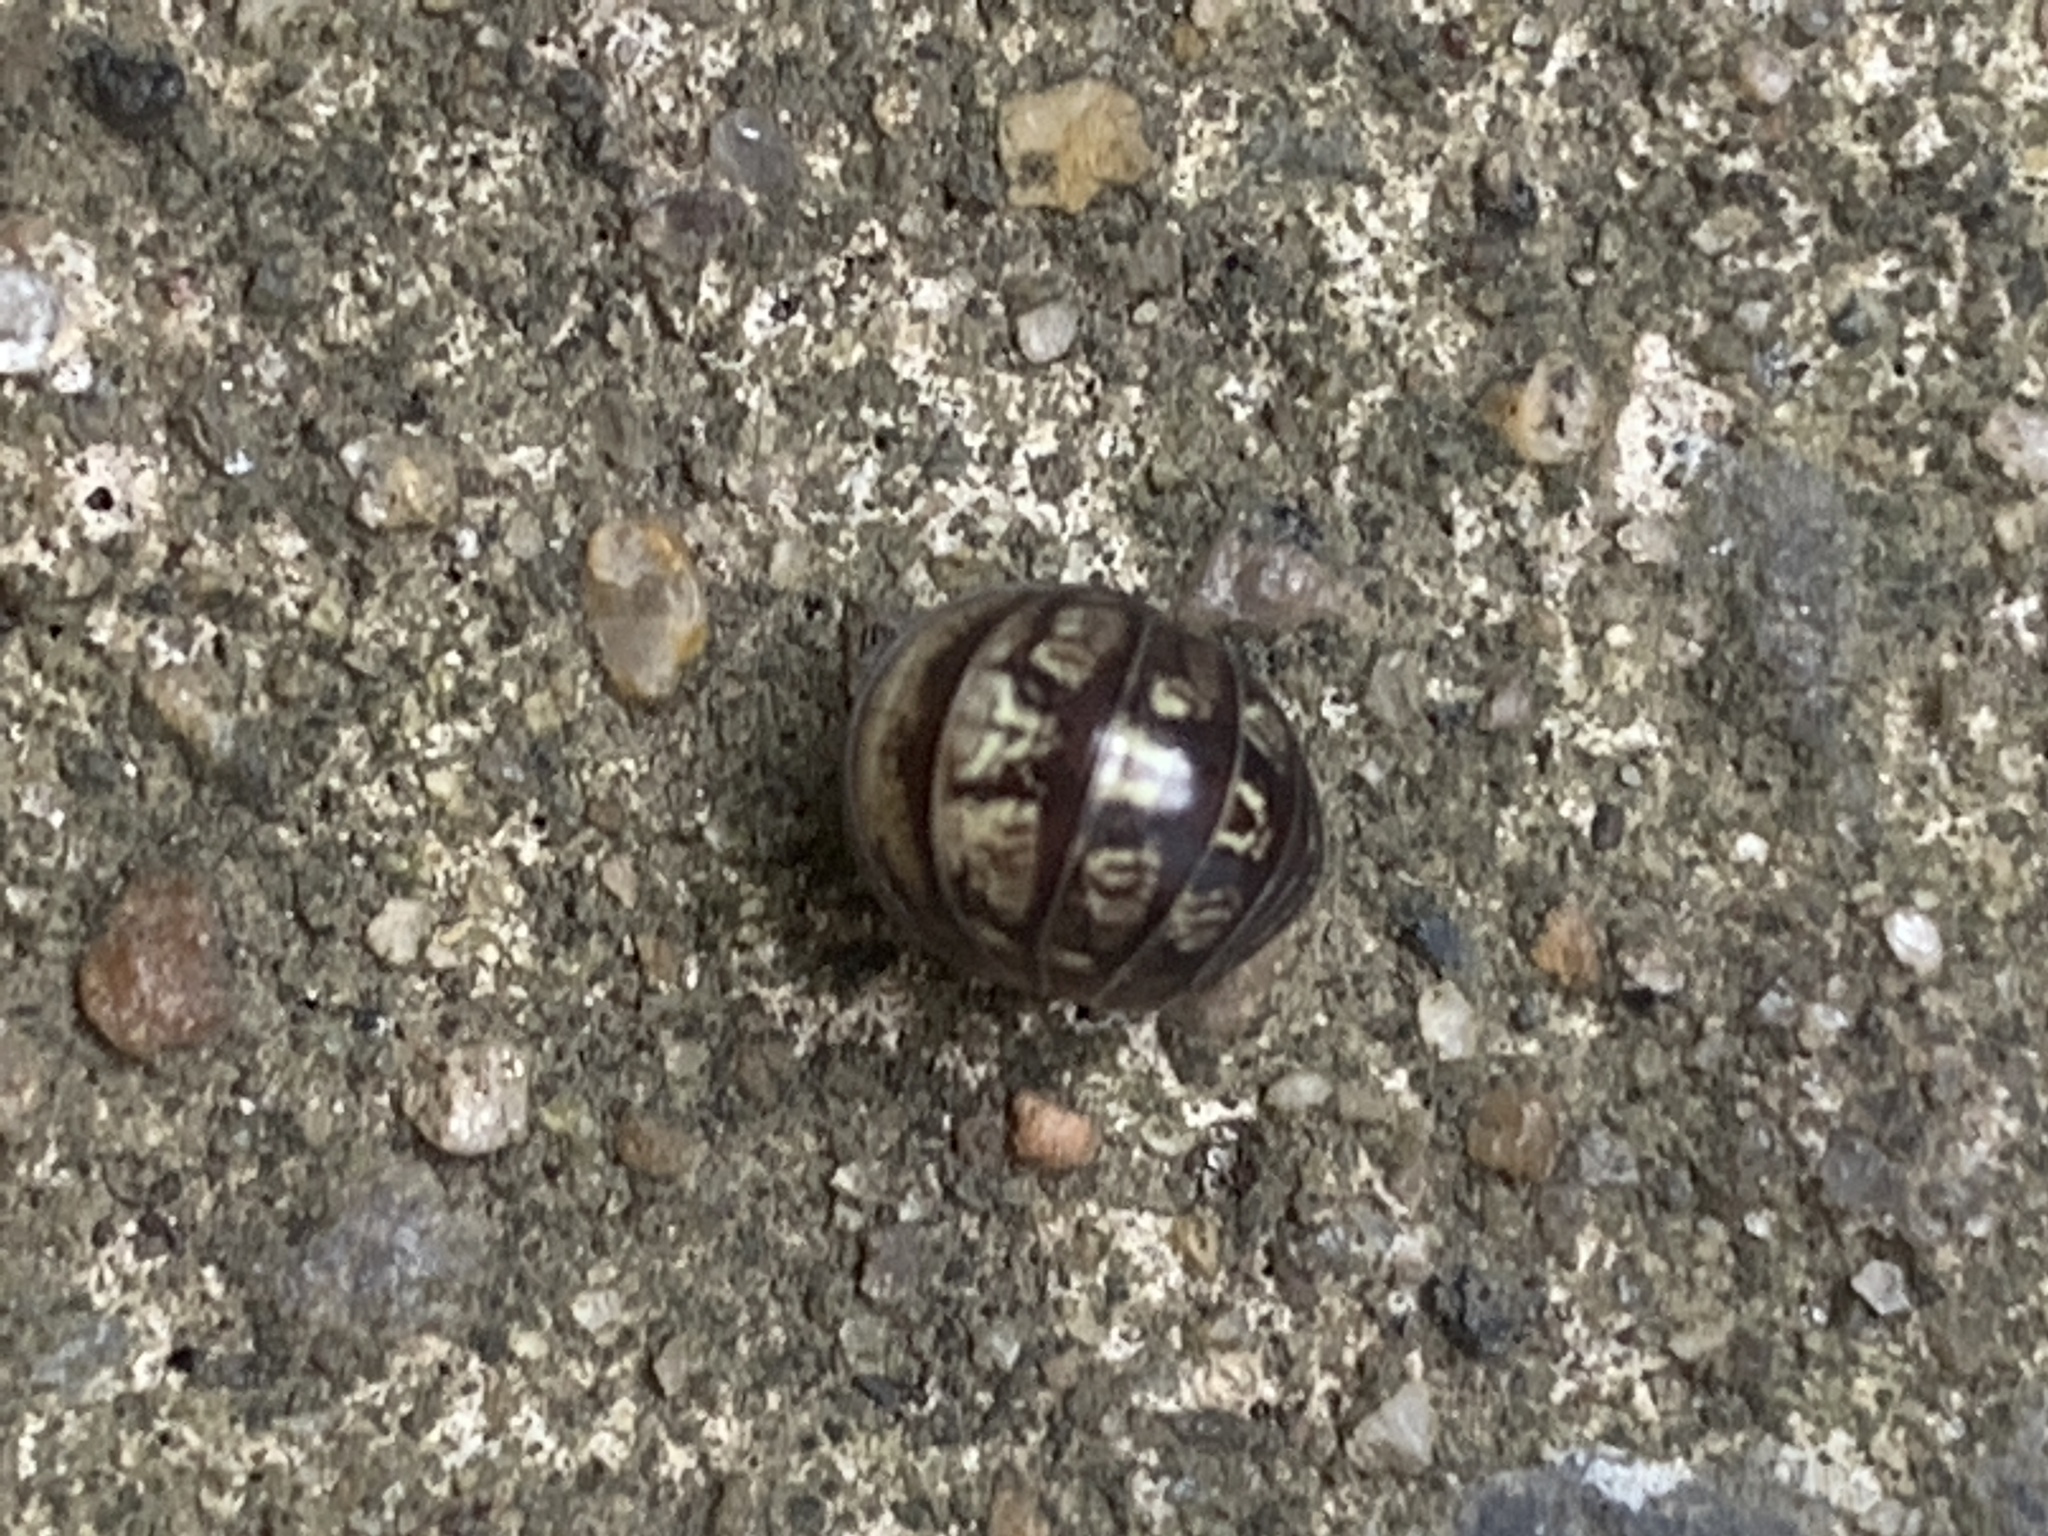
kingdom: Animalia
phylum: Arthropoda
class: Malacostraca
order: Isopoda
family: Armadillidiidae
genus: Armadillidium
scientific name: Armadillidium vulgare
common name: Common pill woodlouse
